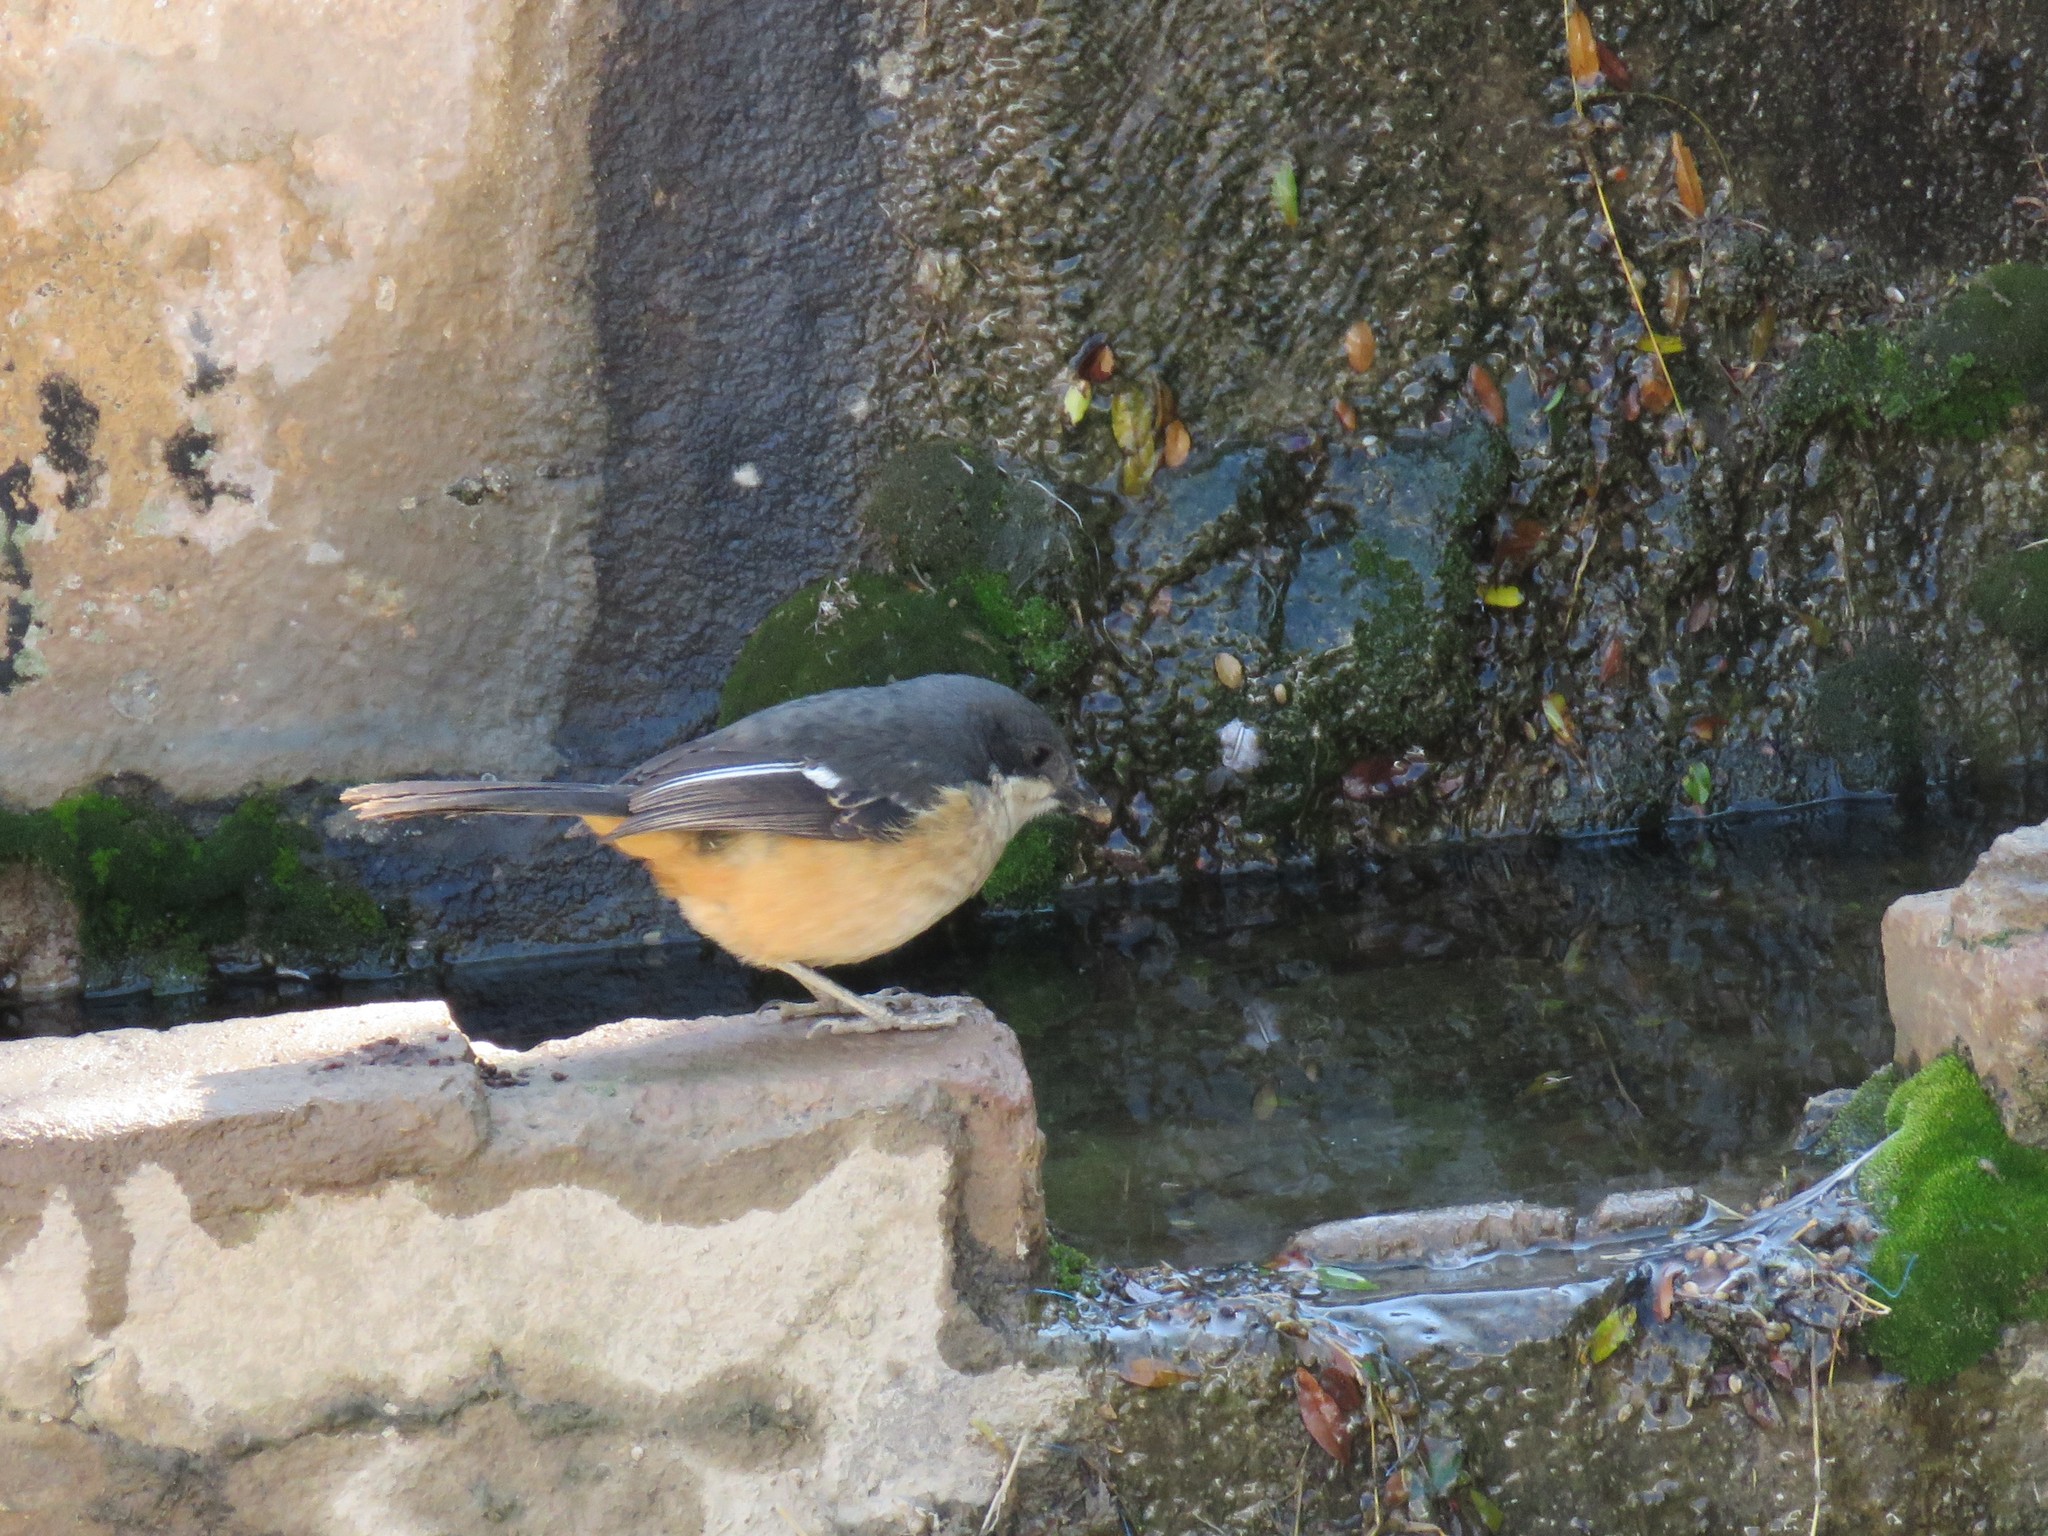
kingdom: Animalia
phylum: Chordata
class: Aves
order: Passeriformes
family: Malaconotidae
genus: Laniarius
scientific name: Laniarius ferrugineus
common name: Southern boubou
